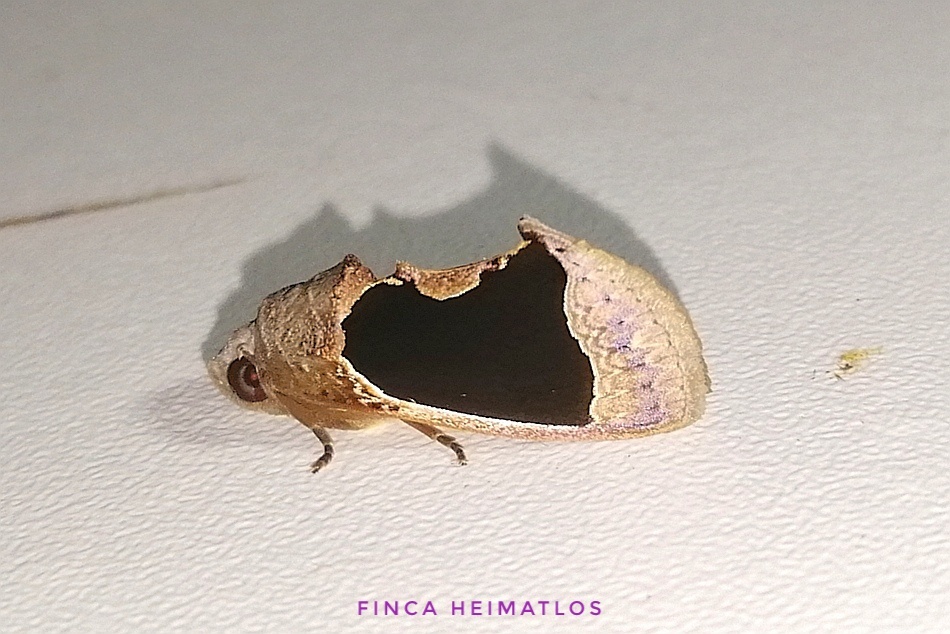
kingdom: Animalia
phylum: Arthropoda
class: Insecta
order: Lepidoptera
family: Erebidae
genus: Gonodonta
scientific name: Gonodonta milla
